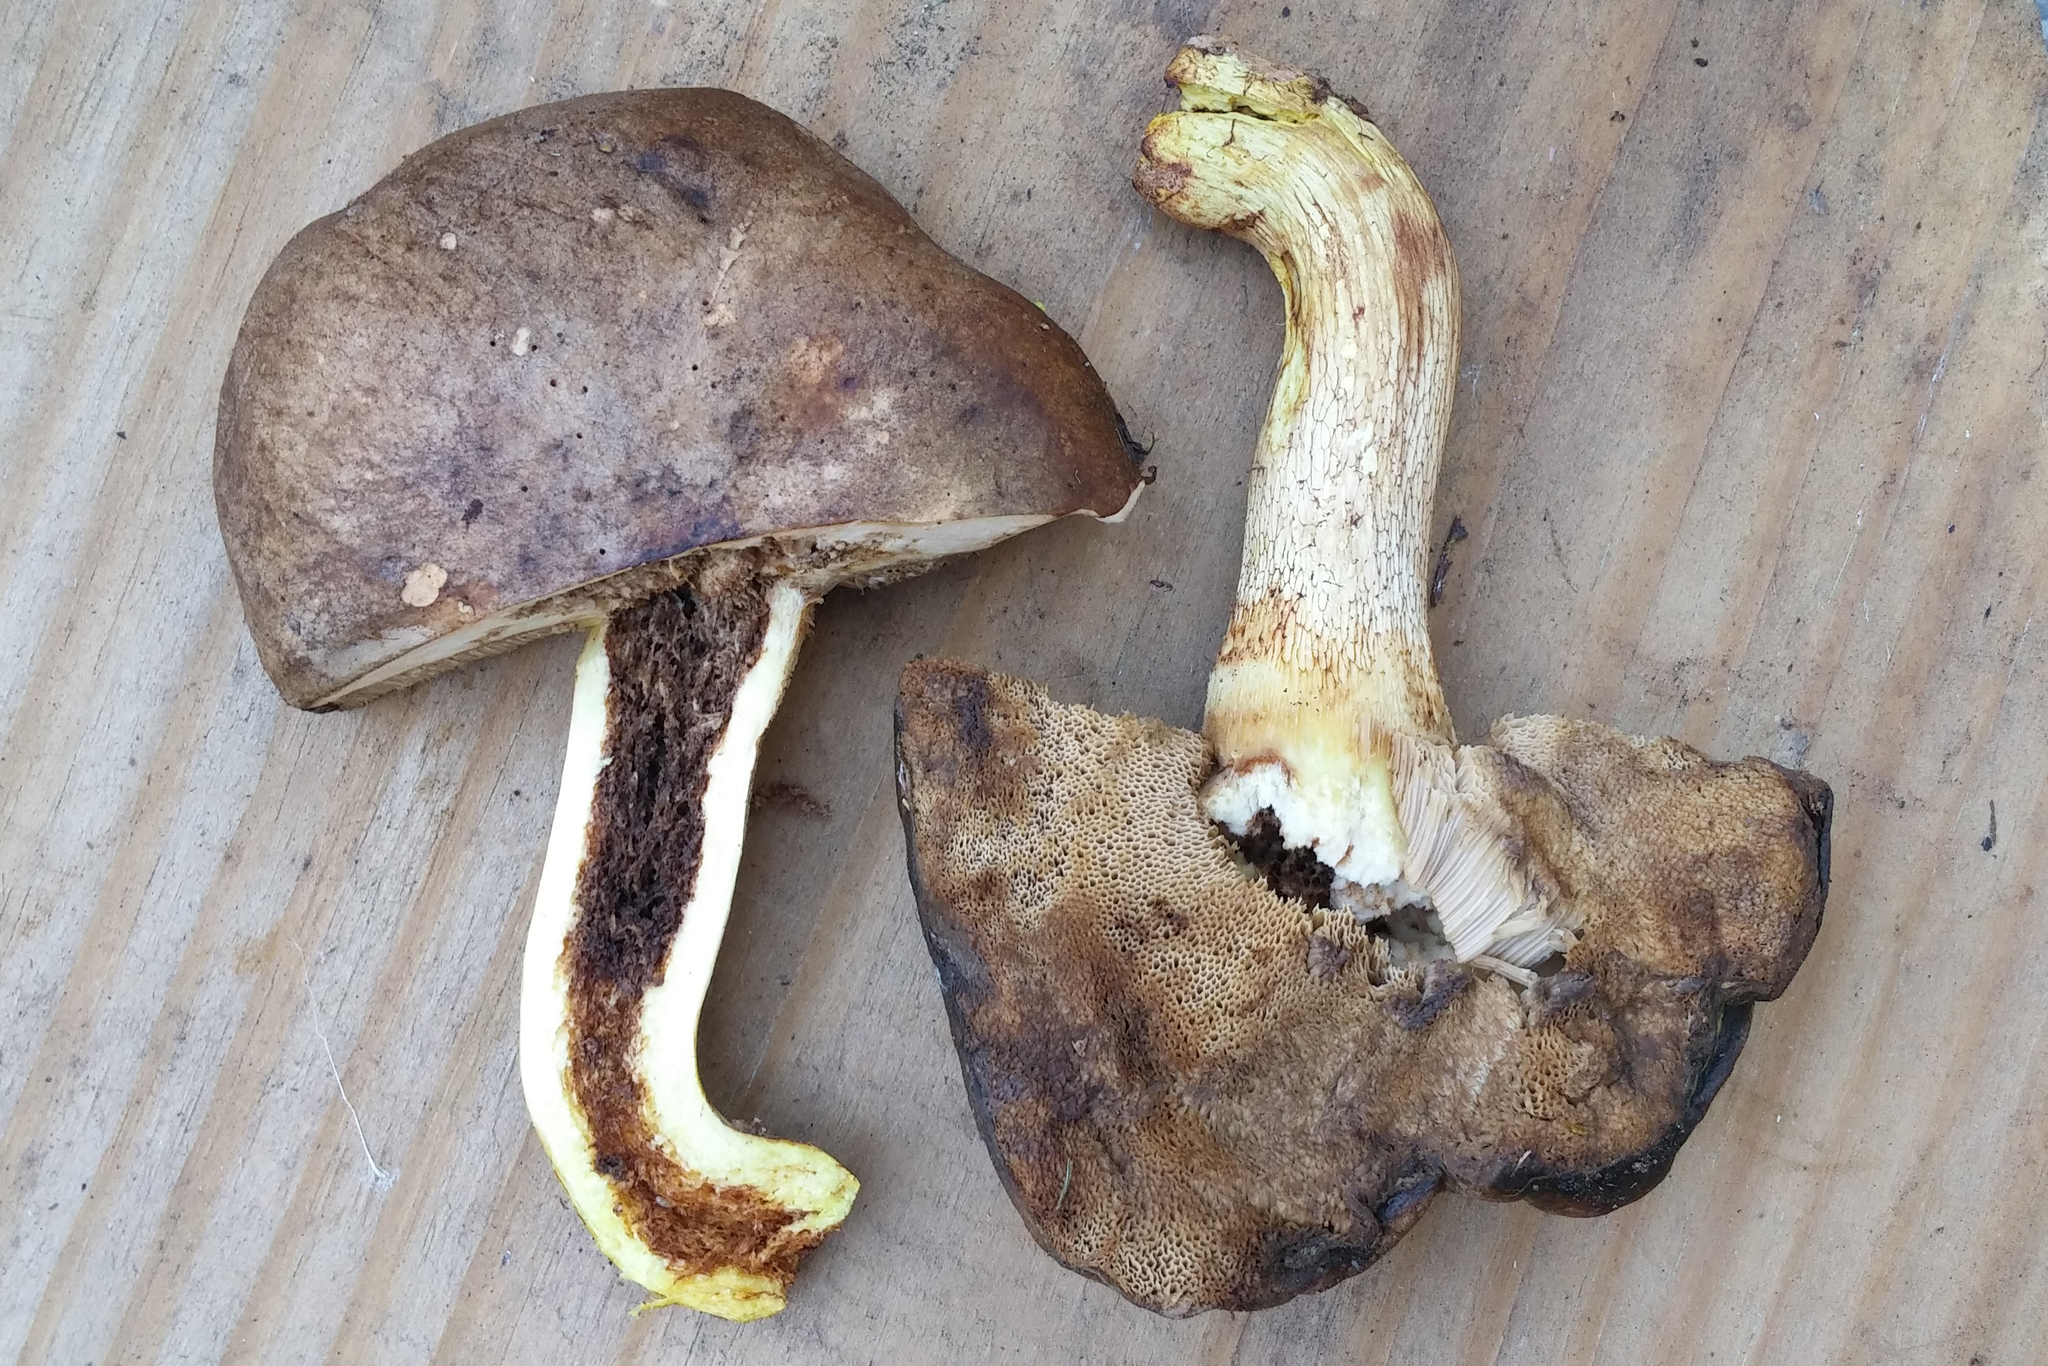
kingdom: Fungi
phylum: Basidiomycota
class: Agaricomycetes
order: Boletales
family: Boletaceae
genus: Harrya
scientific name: Harrya chromipes
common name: Chrome-footed bolete
